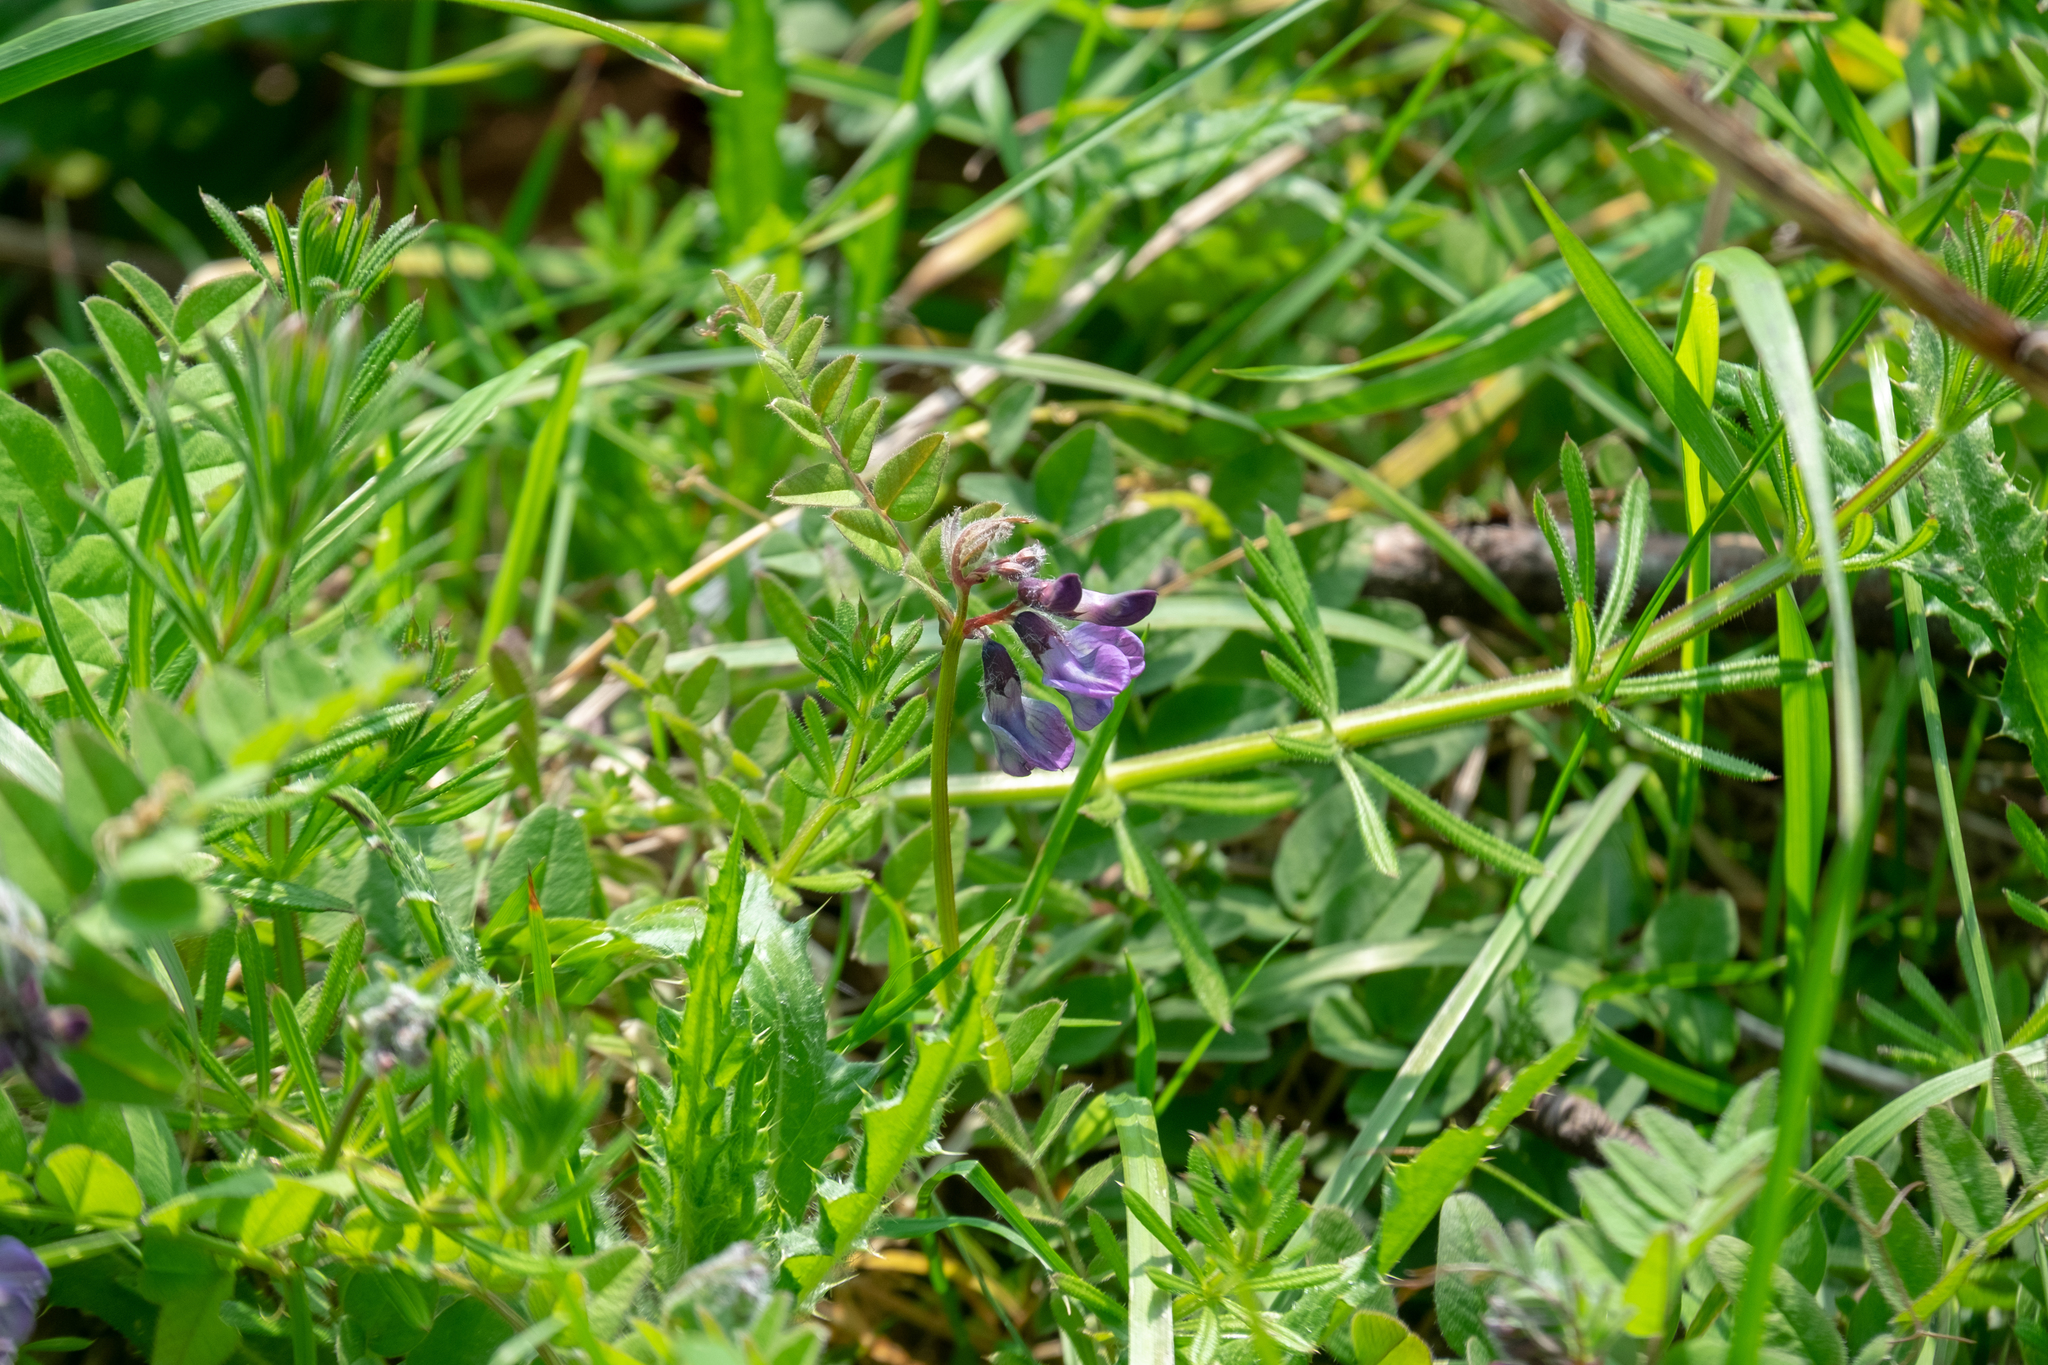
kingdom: Plantae
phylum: Tracheophyta
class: Magnoliopsida
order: Fabales
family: Fabaceae
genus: Vicia
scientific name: Vicia sepium
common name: Bush vetch
